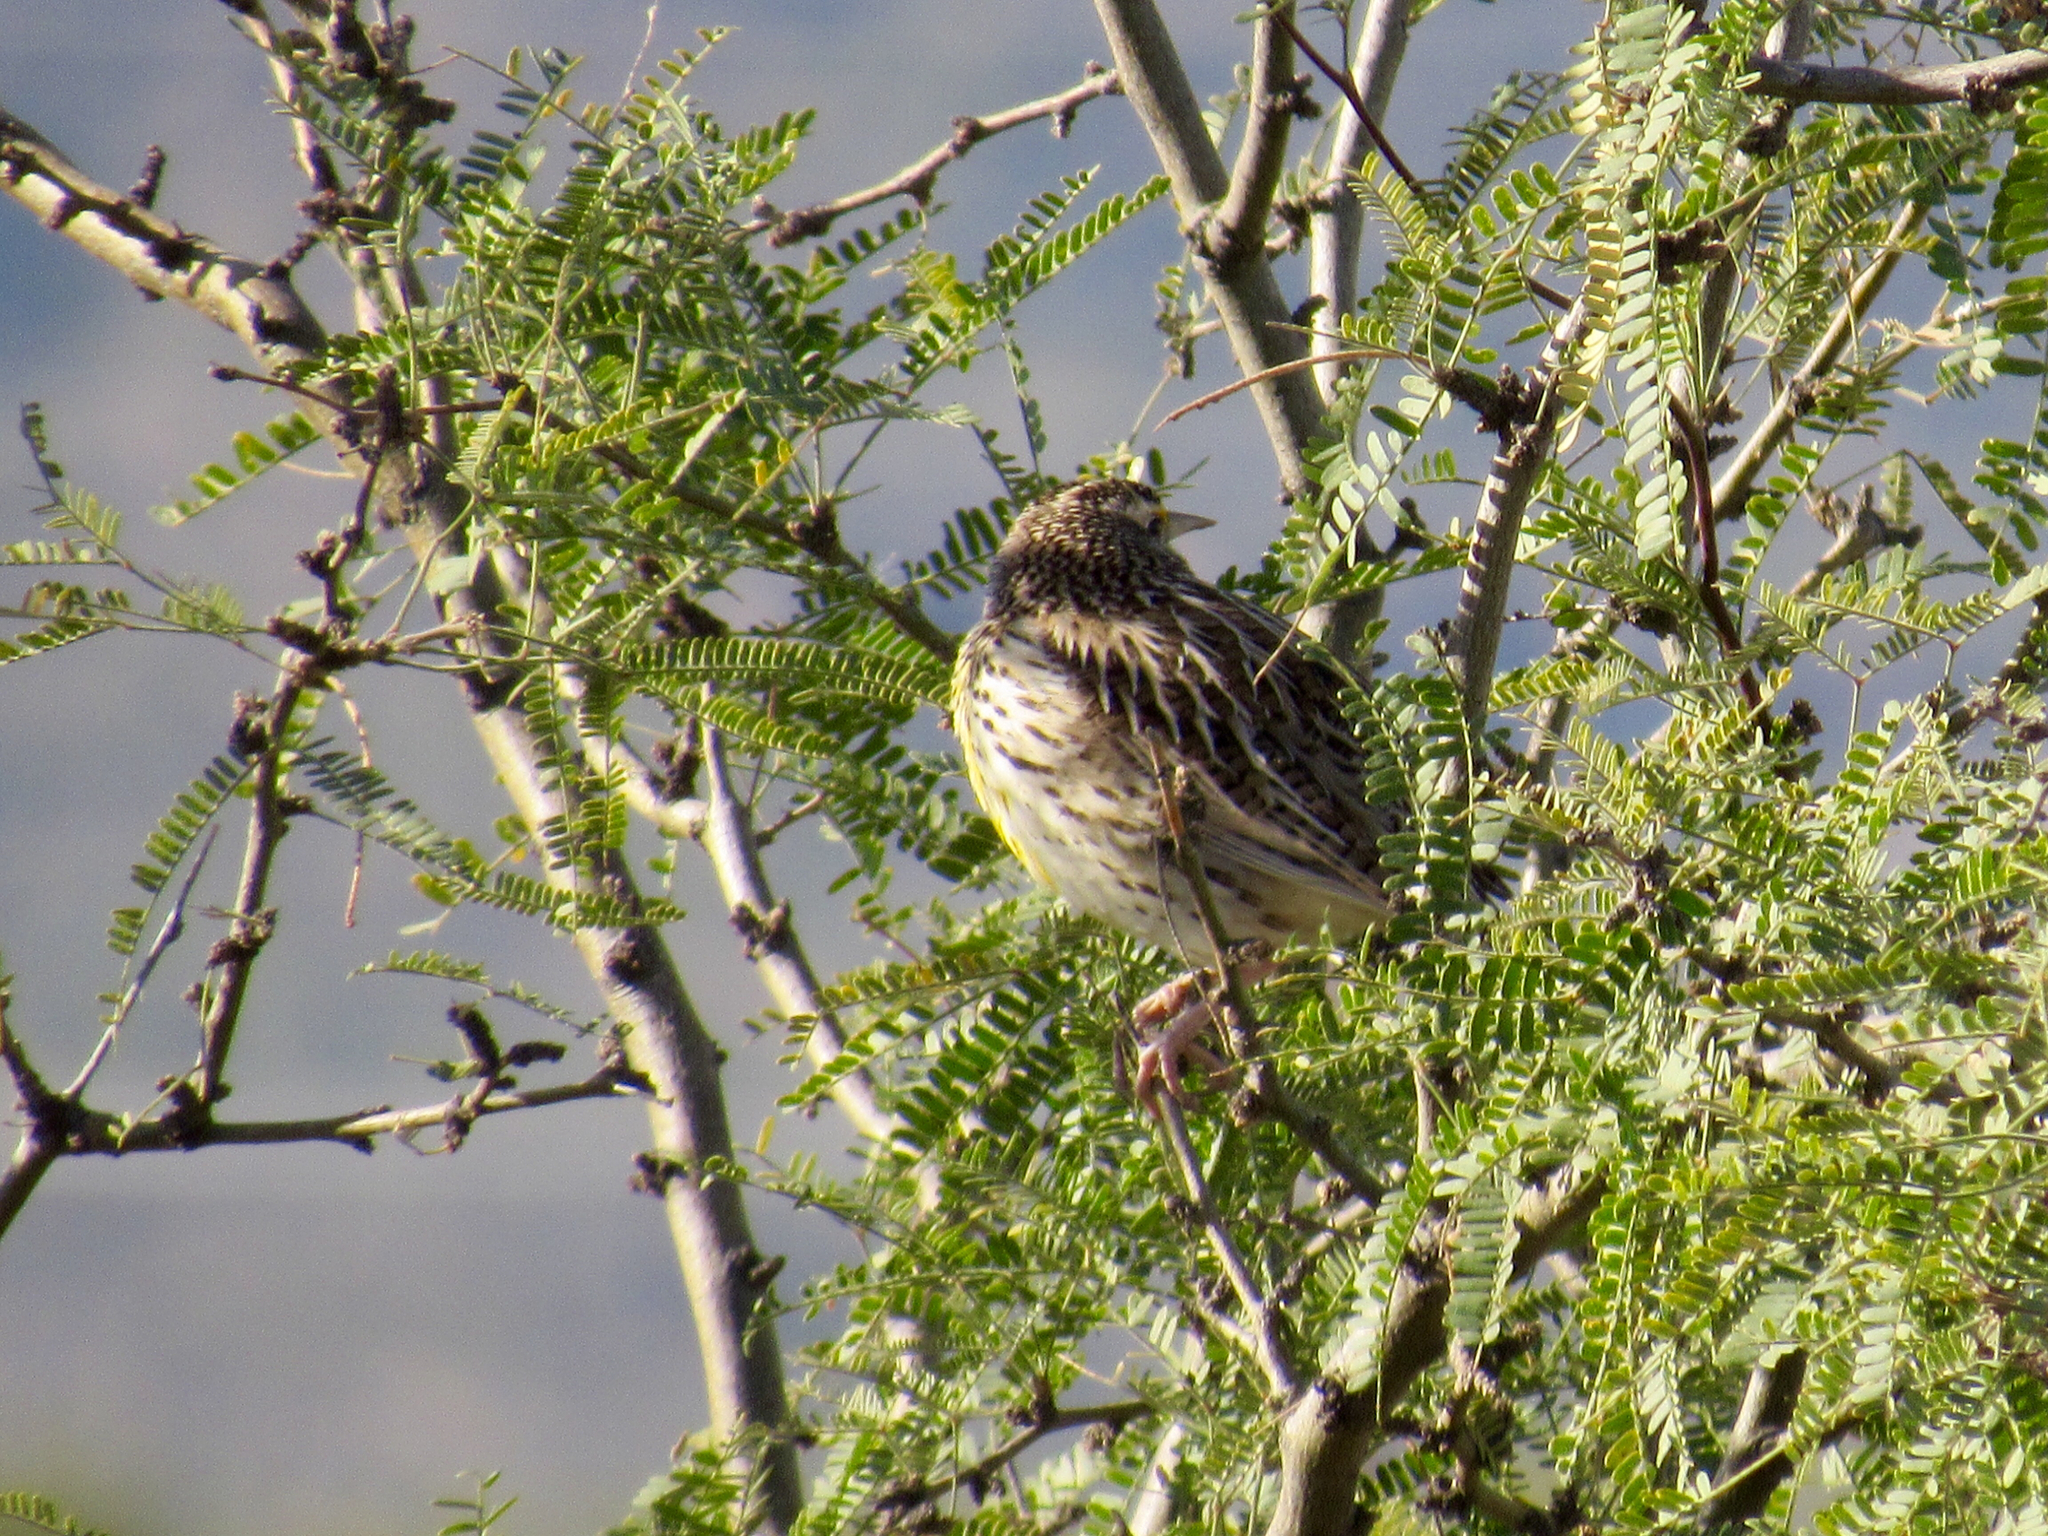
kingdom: Animalia
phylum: Chordata
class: Aves
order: Passeriformes
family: Icteridae
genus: Sturnella
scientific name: Sturnella lilianae
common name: Lilian's meadowlark
